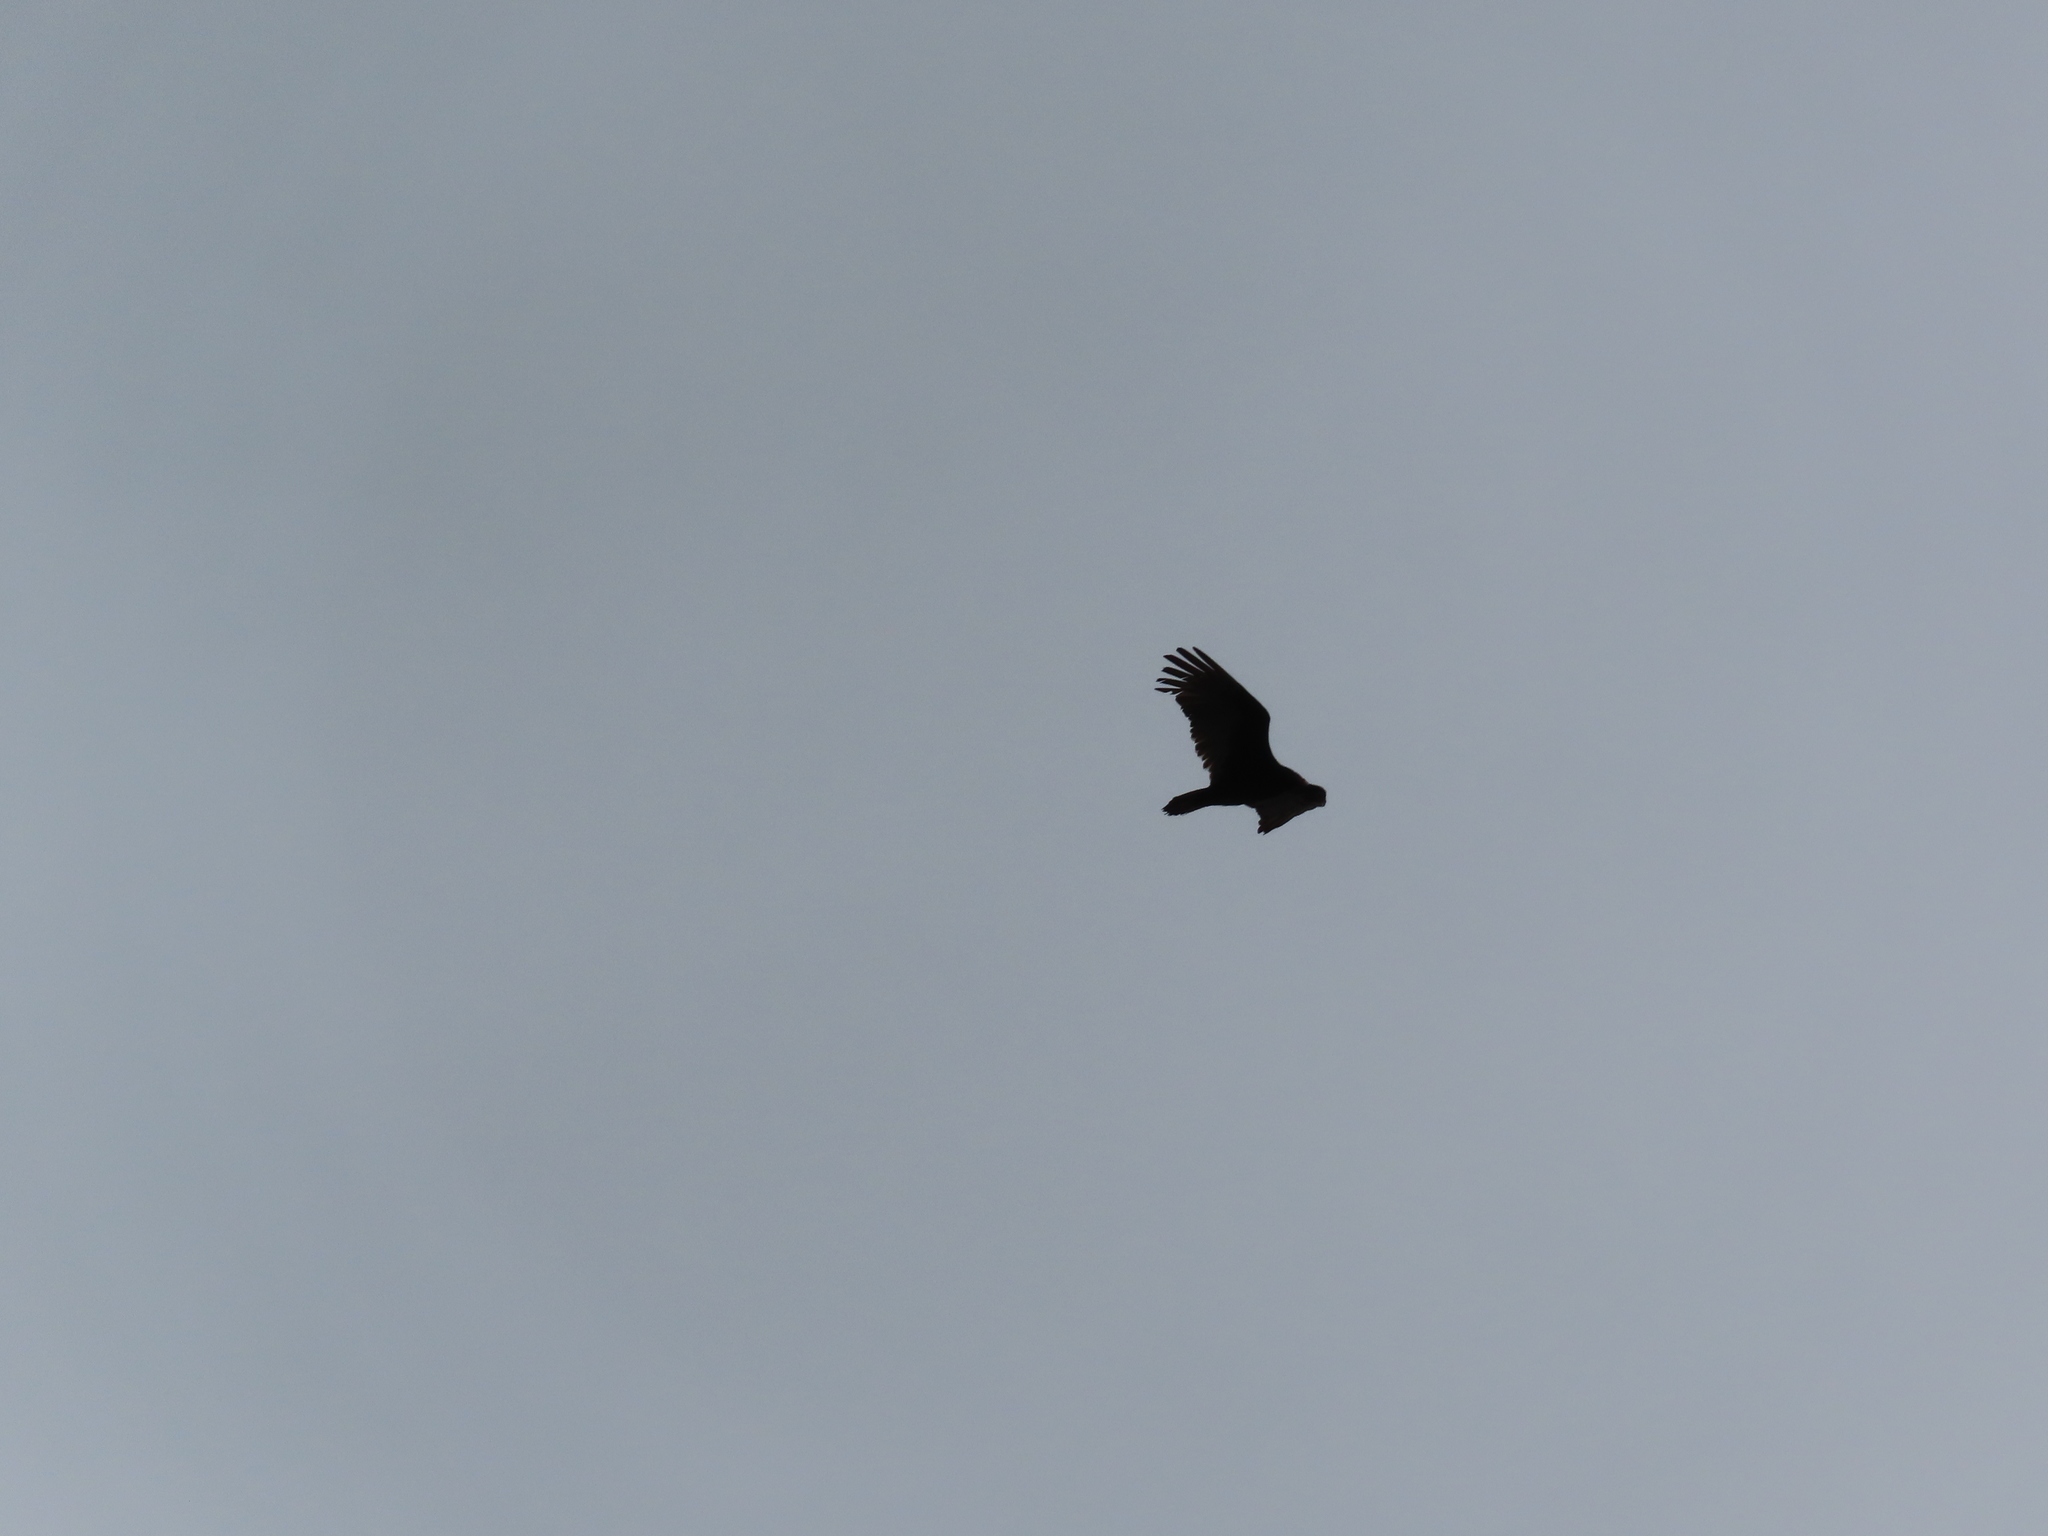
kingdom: Animalia
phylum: Chordata
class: Aves
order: Accipitriformes
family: Cathartidae
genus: Cathartes
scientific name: Cathartes aura
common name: Turkey vulture
